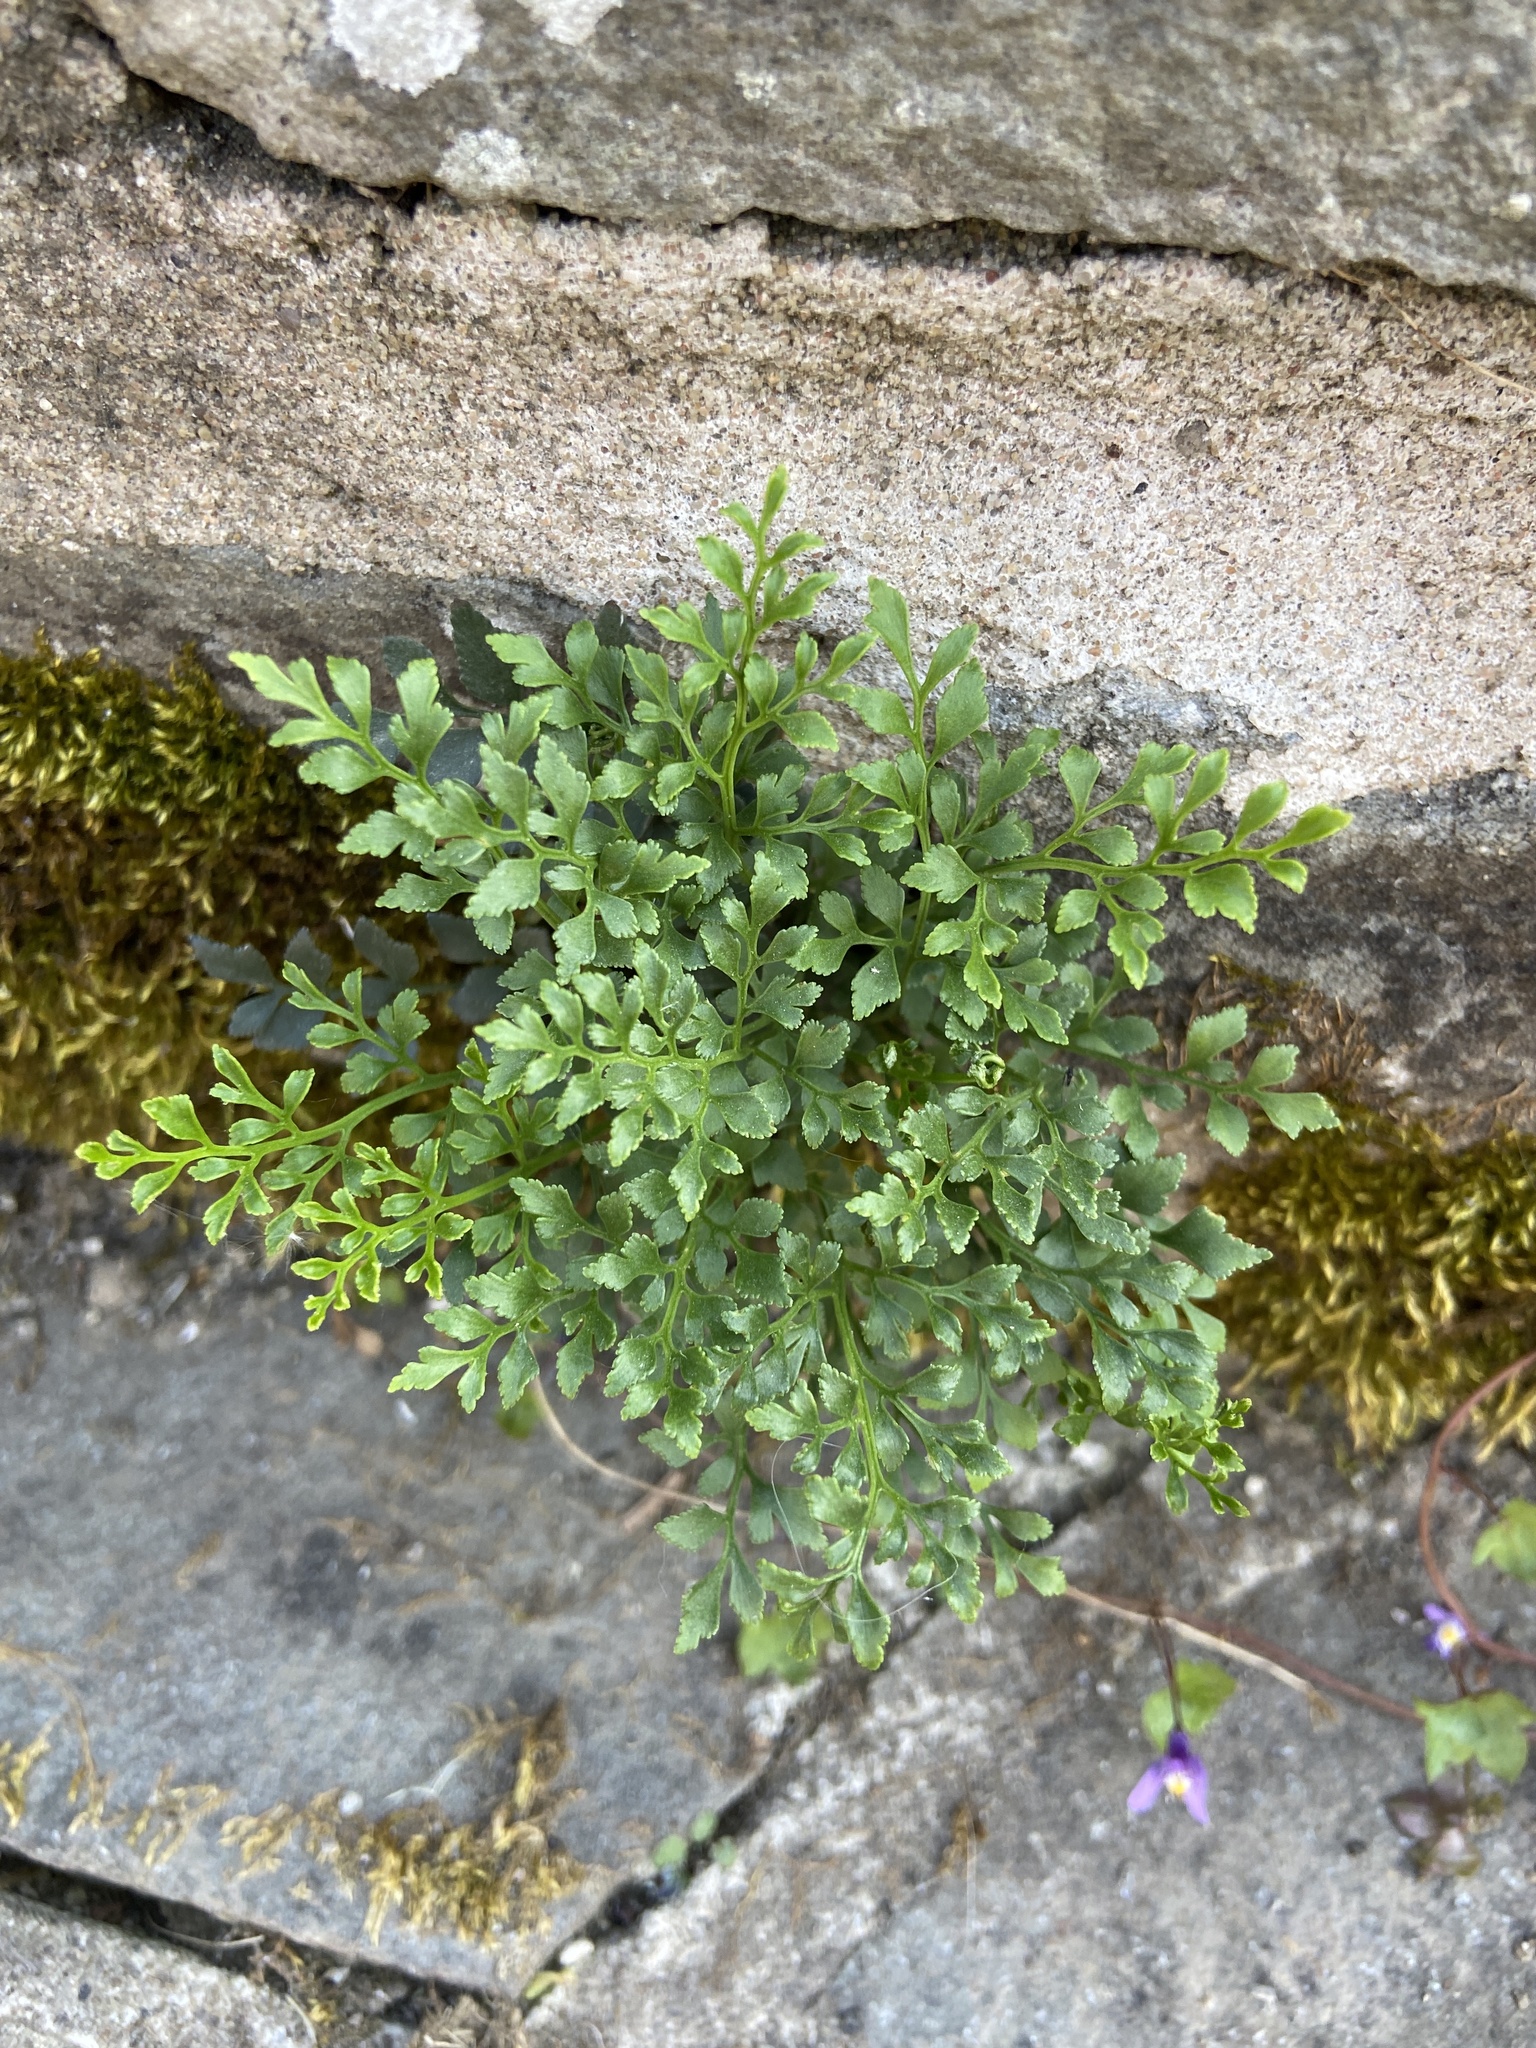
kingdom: Plantae
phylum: Tracheophyta
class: Polypodiopsida
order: Polypodiales
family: Aspleniaceae
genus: Asplenium
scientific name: Asplenium ruta-muraria
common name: Wall-rue
